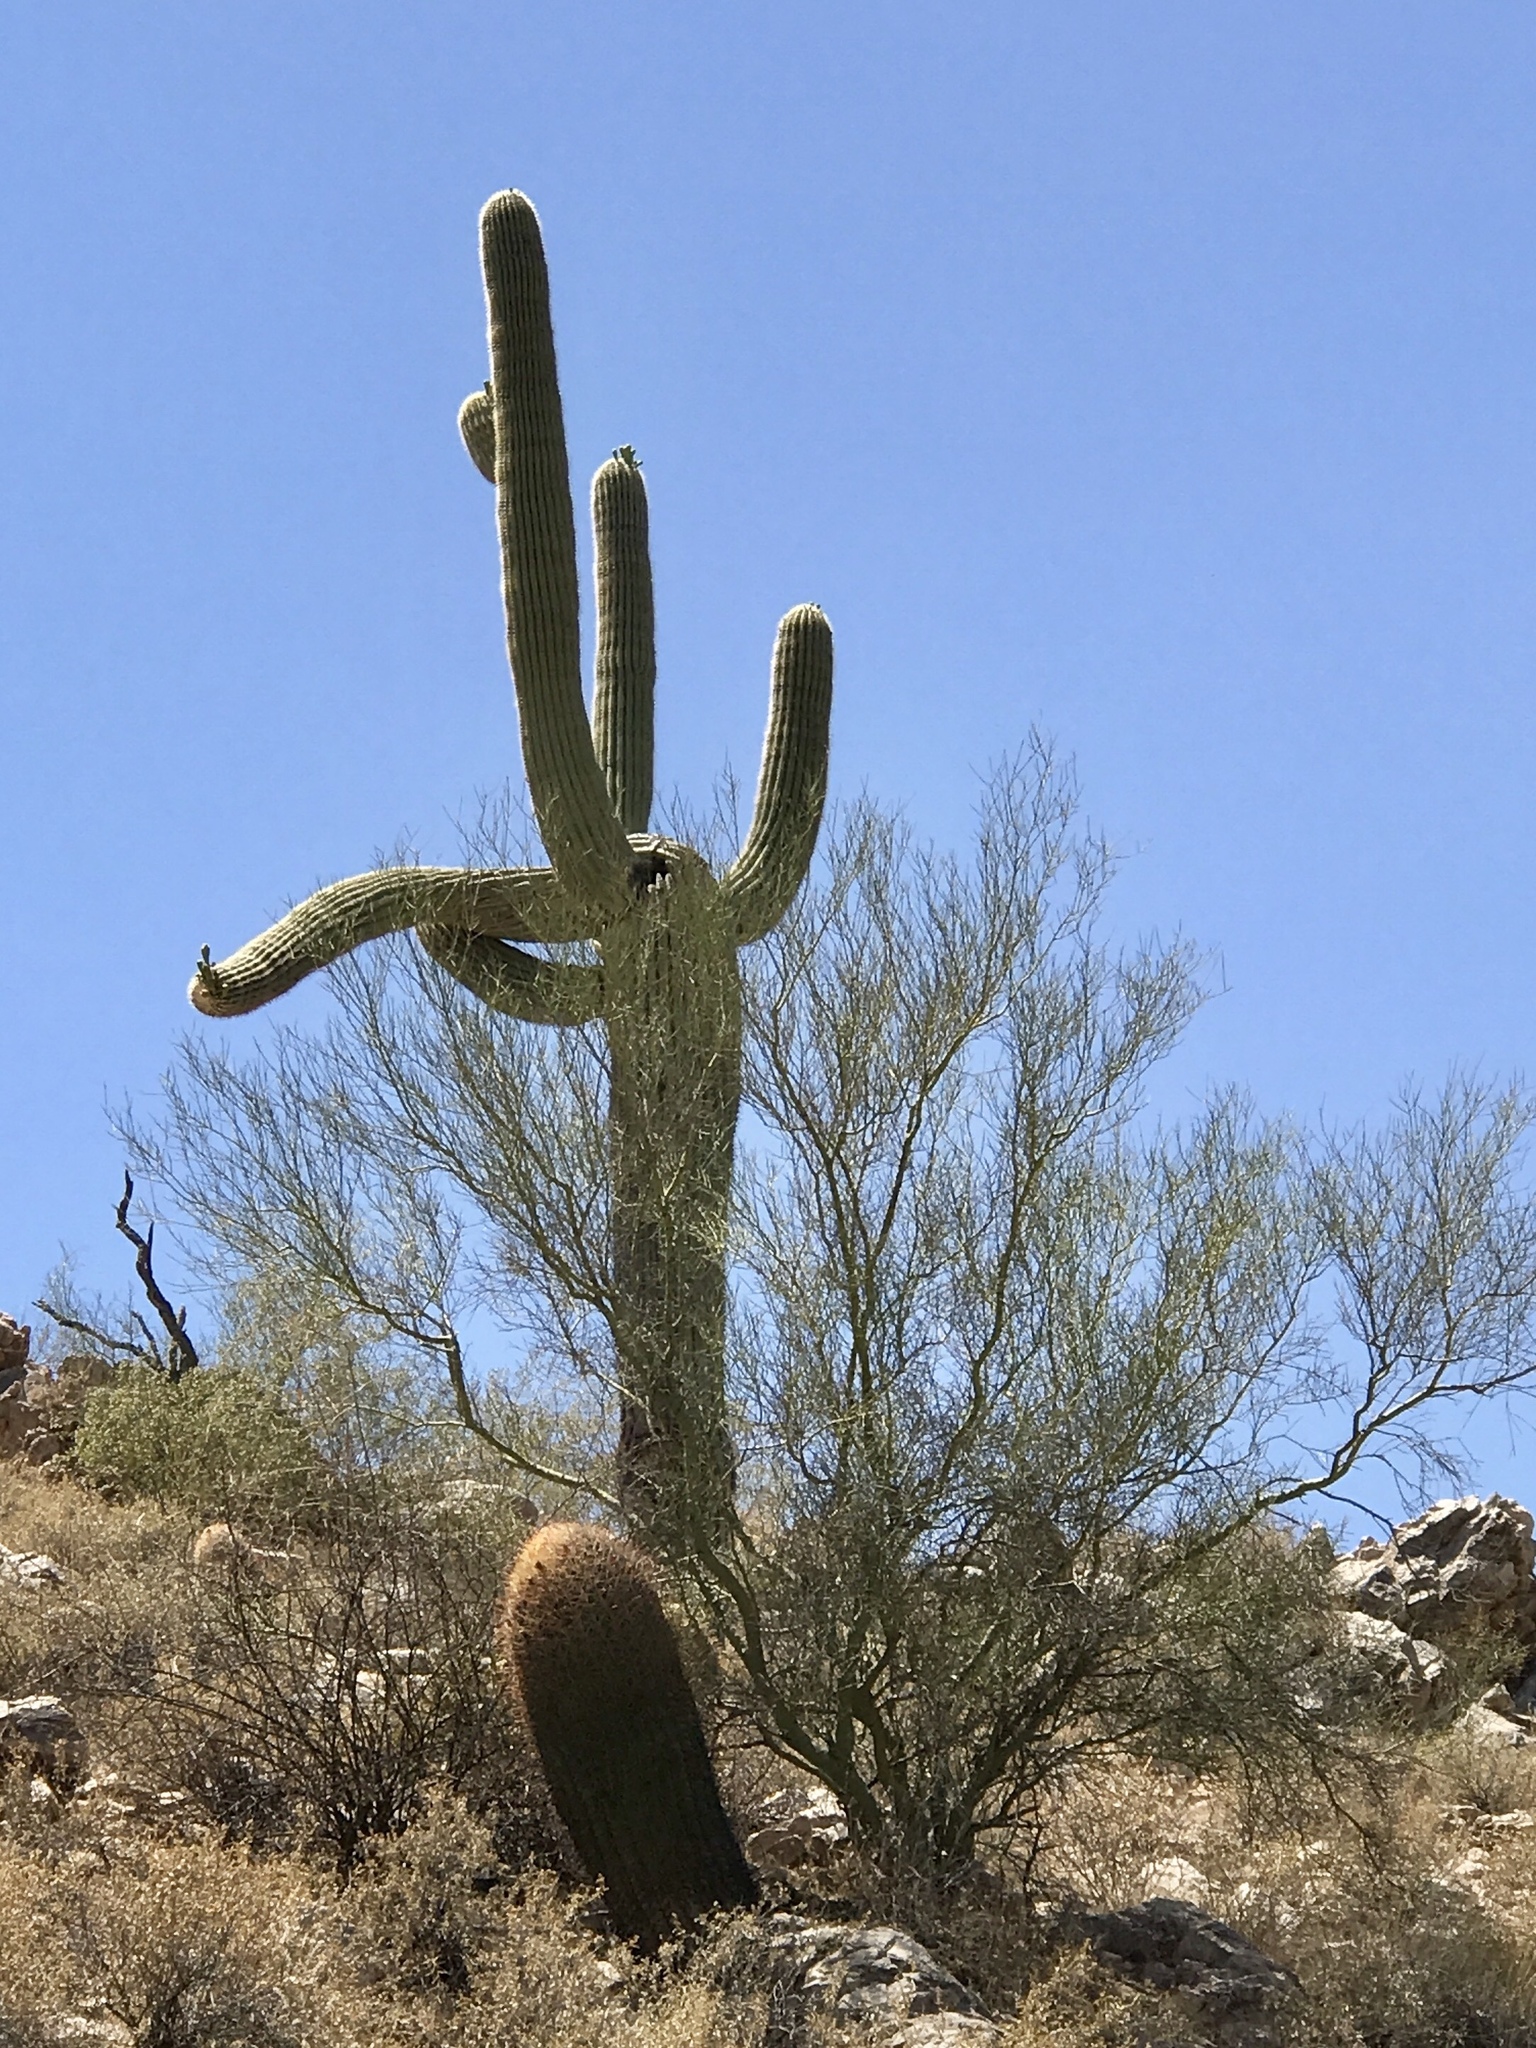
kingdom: Plantae
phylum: Tracheophyta
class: Magnoliopsida
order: Caryophyllales
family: Cactaceae
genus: Carnegiea
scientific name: Carnegiea gigantea
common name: Saguaro
